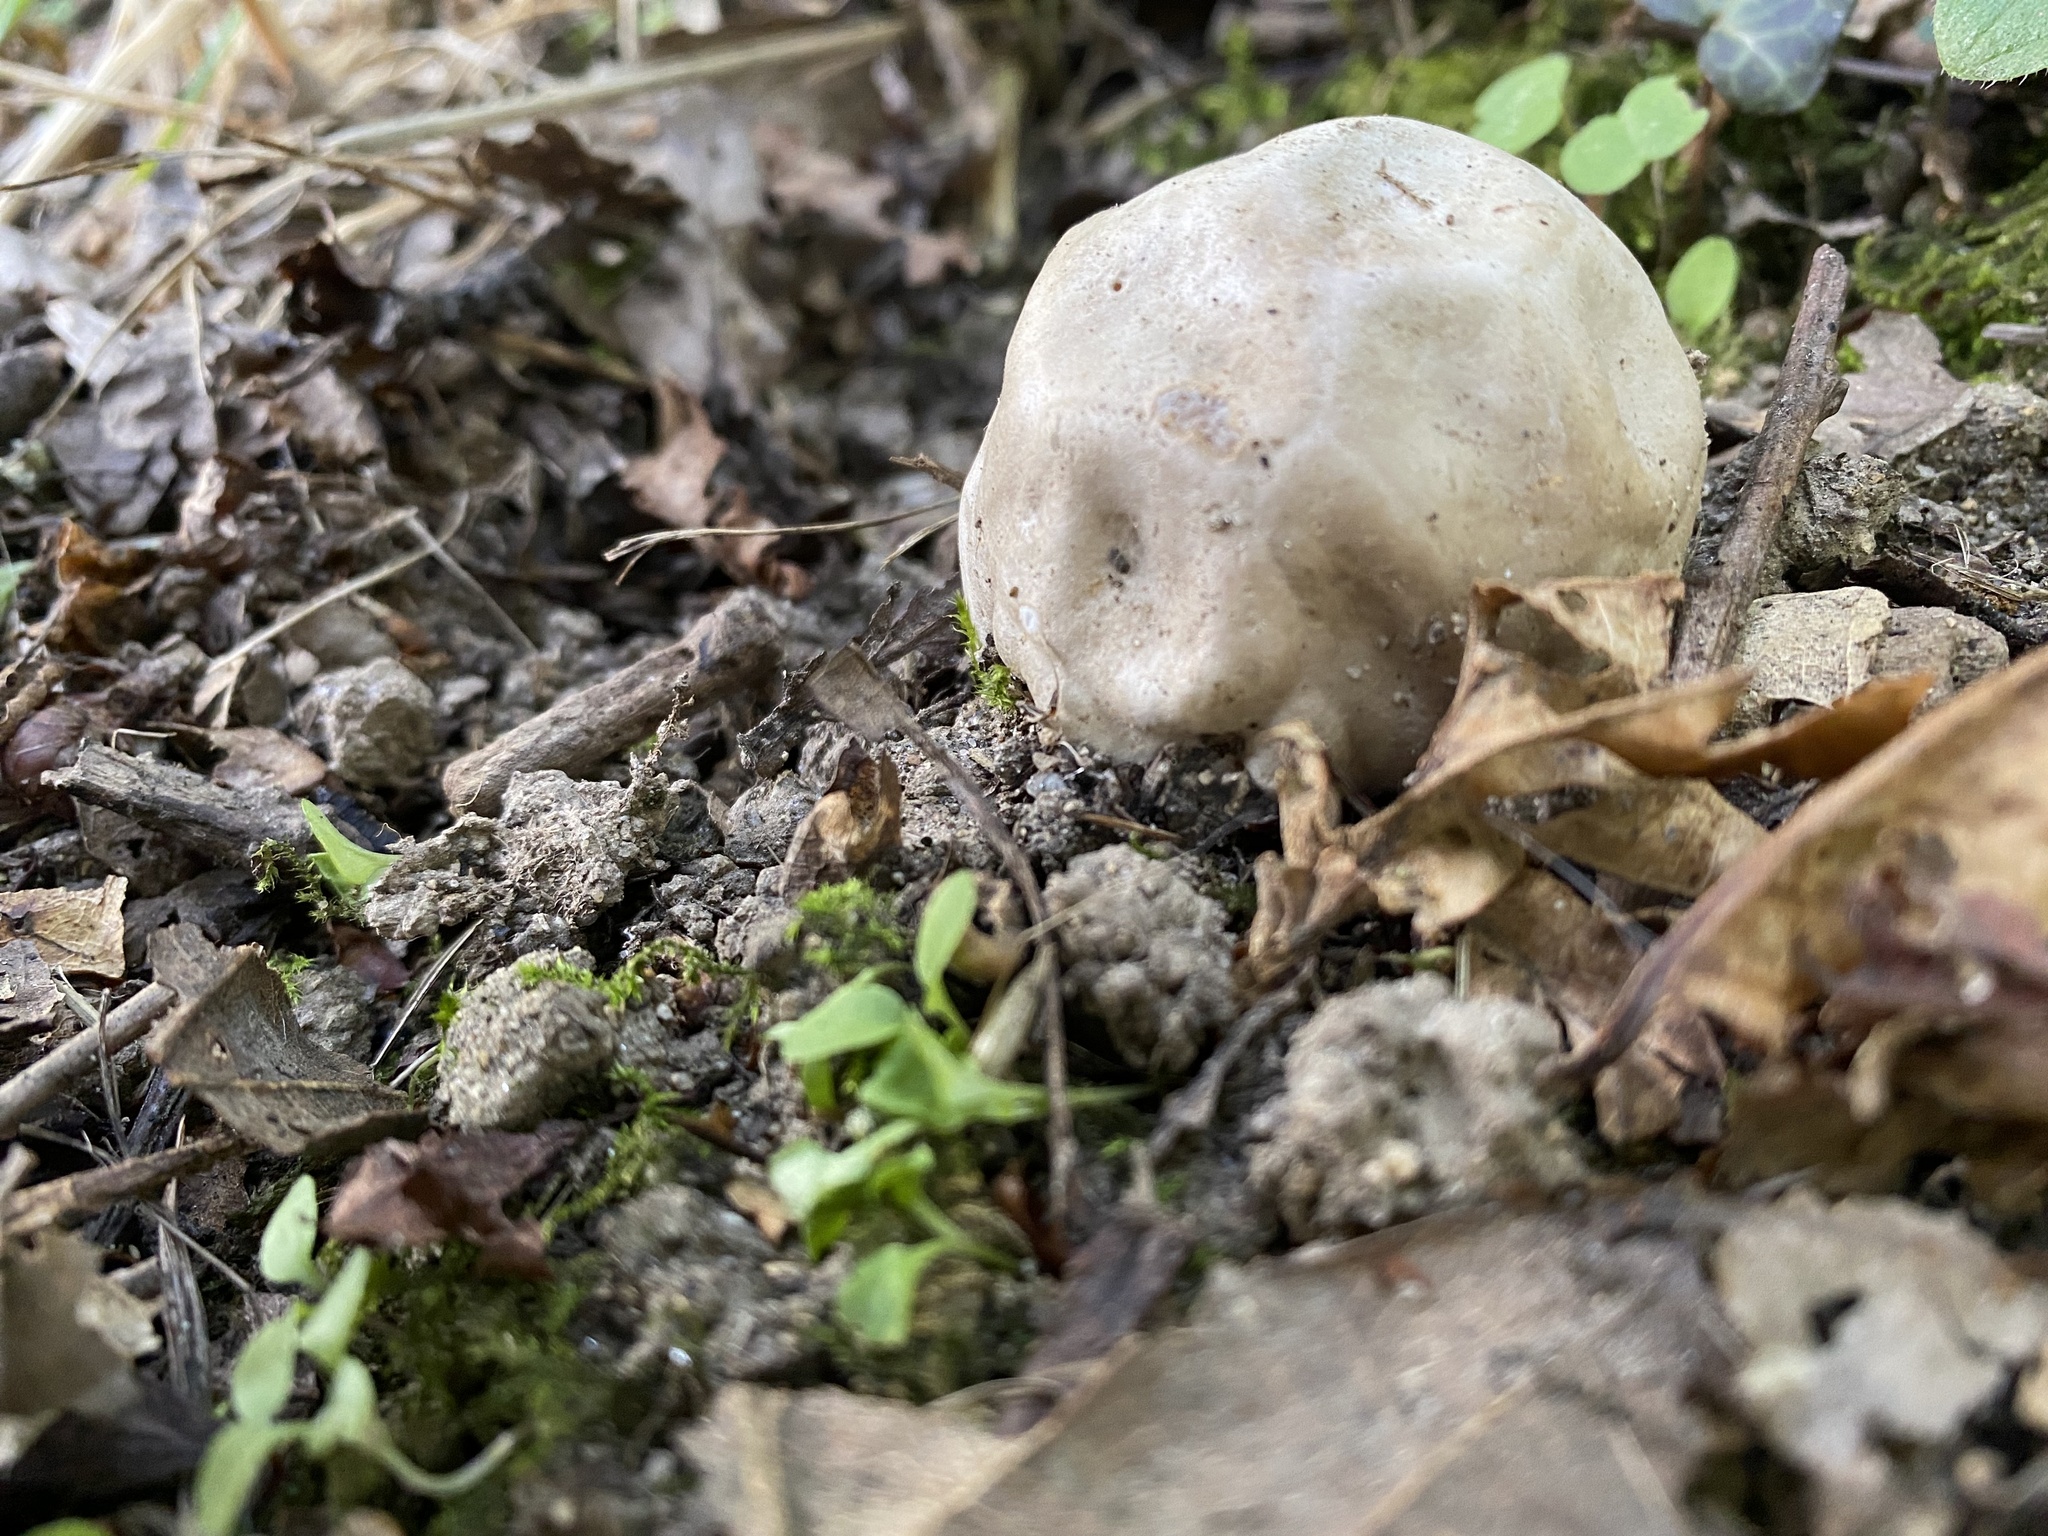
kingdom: Fungi
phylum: Basidiomycota
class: Agaricomycetes
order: Phallales
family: Phallaceae
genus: Clathrus
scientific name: Clathrus ruber
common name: Red cage
